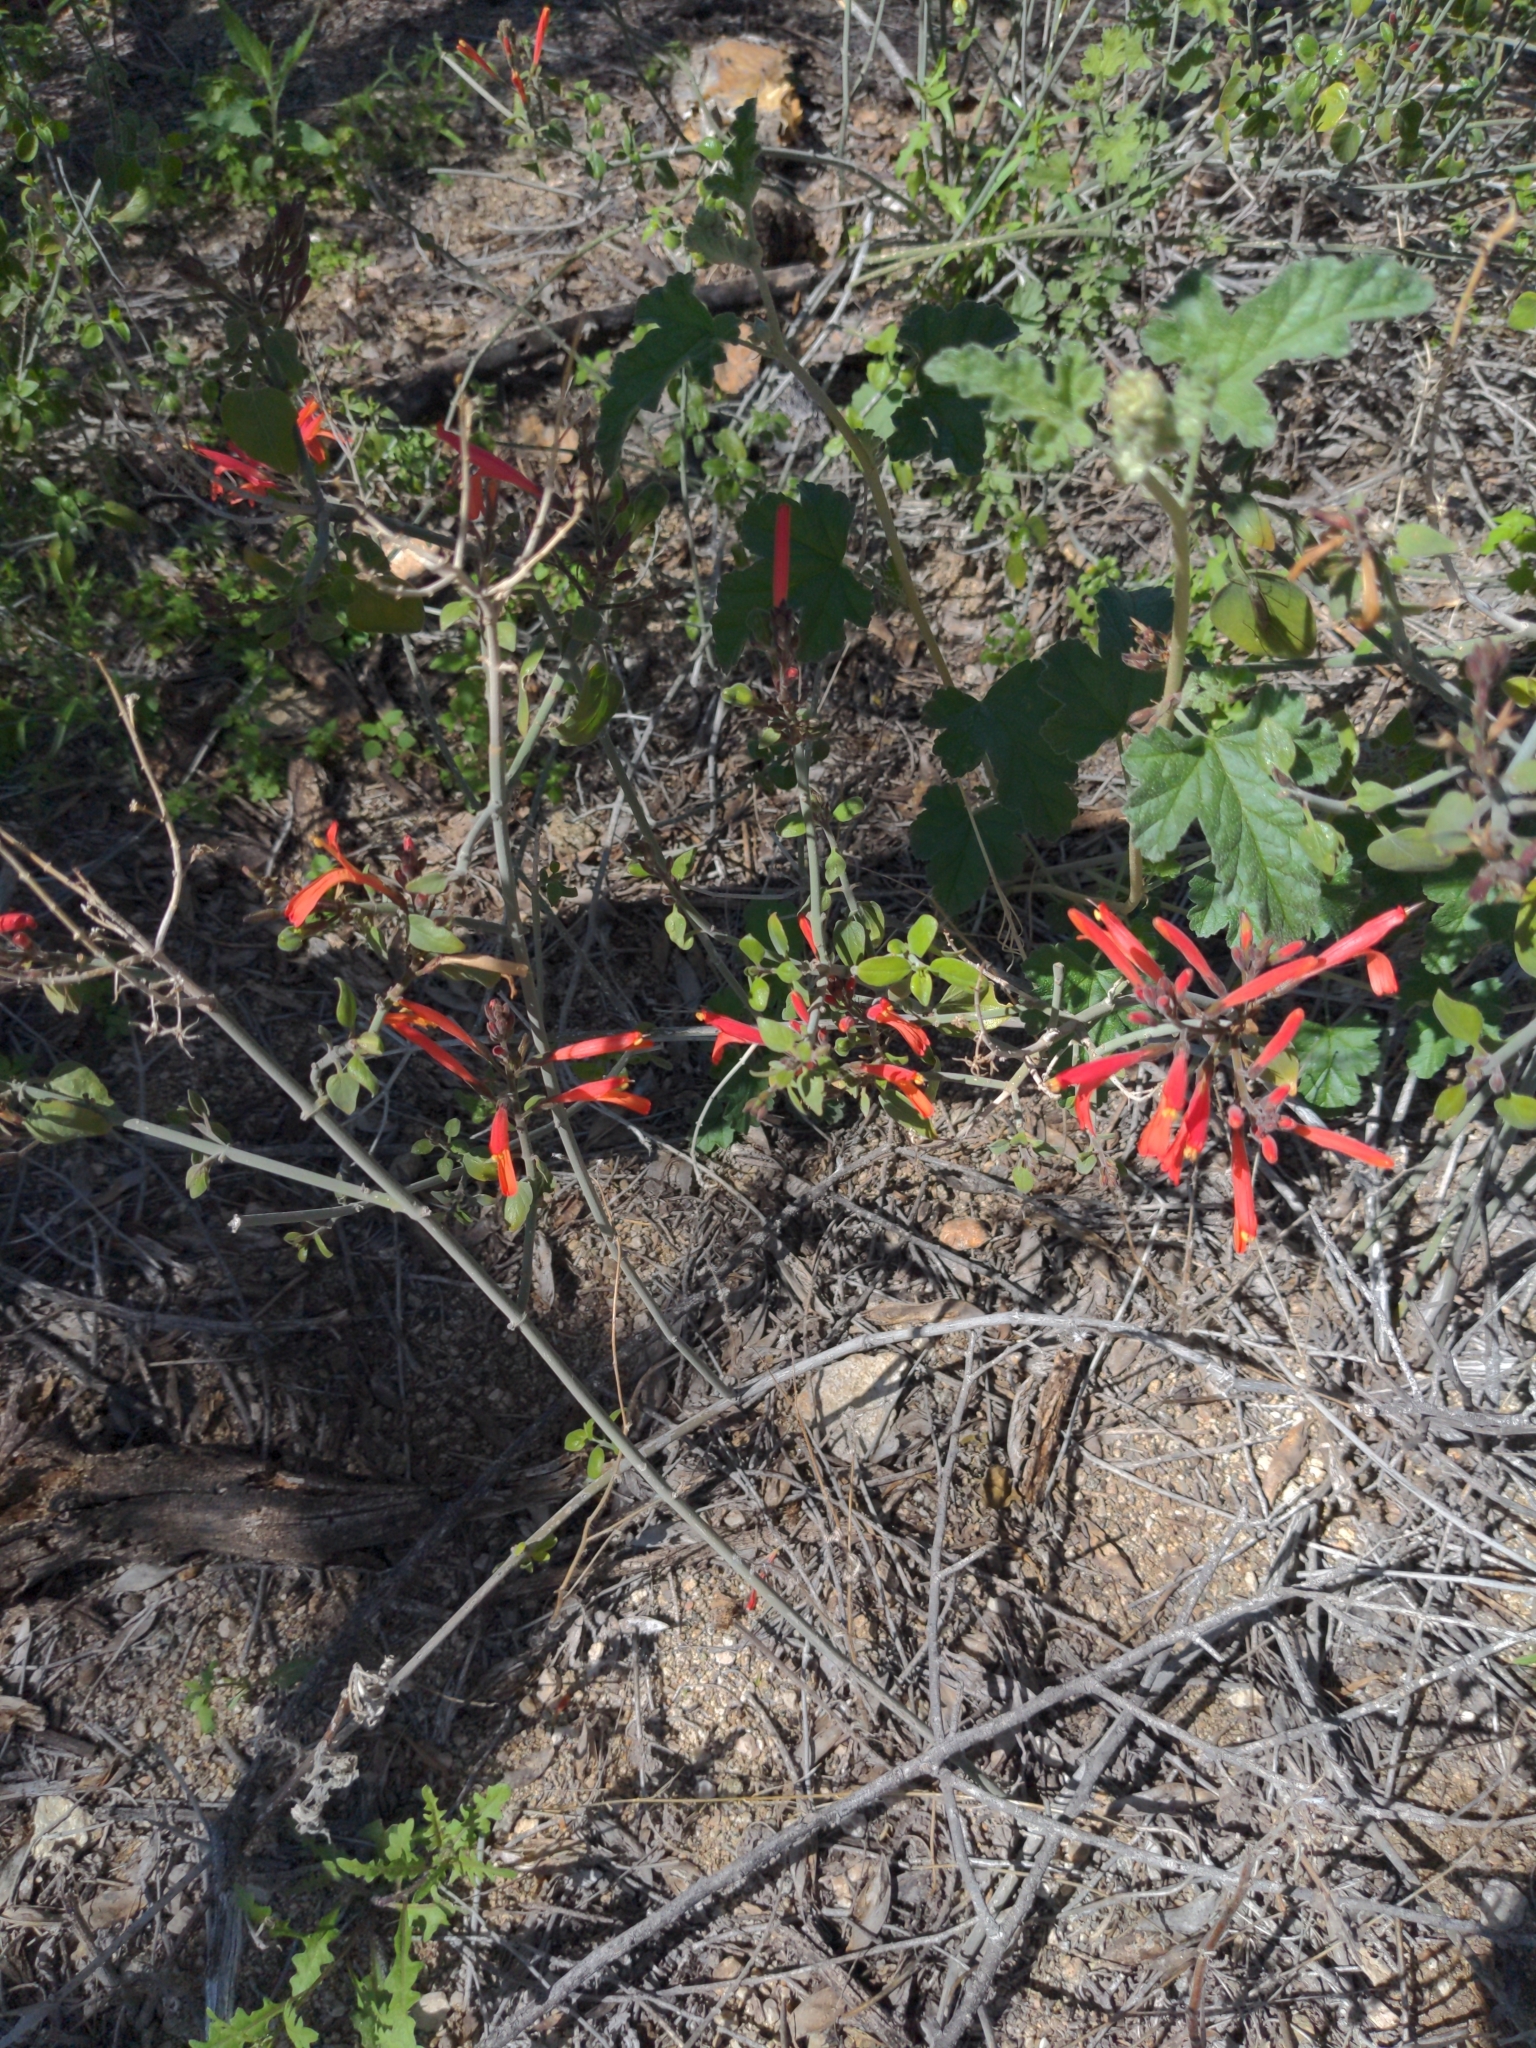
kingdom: Plantae
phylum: Tracheophyta
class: Magnoliopsida
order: Lamiales
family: Acanthaceae
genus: Justicia
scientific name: Justicia californica
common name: Chuparosa-honeysuckle
